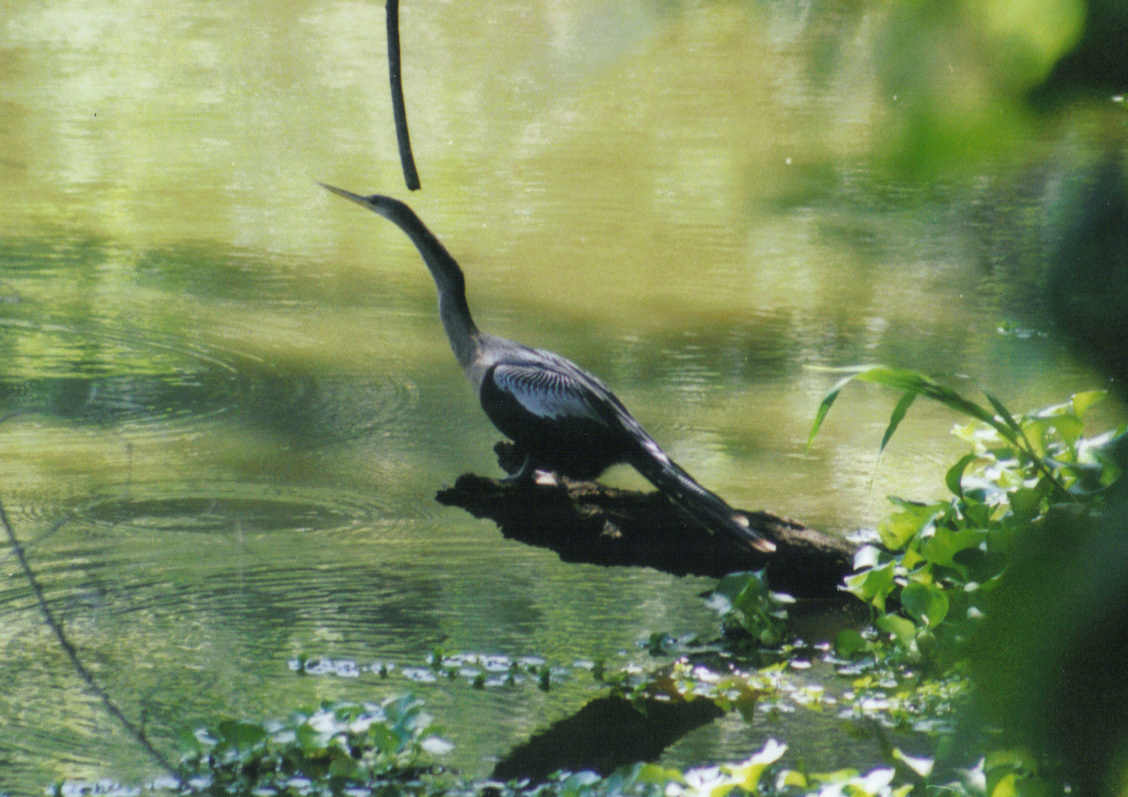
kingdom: Animalia
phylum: Chordata
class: Aves
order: Suliformes
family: Anhingidae
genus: Anhinga
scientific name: Anhinga anhinga
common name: Anhinga
